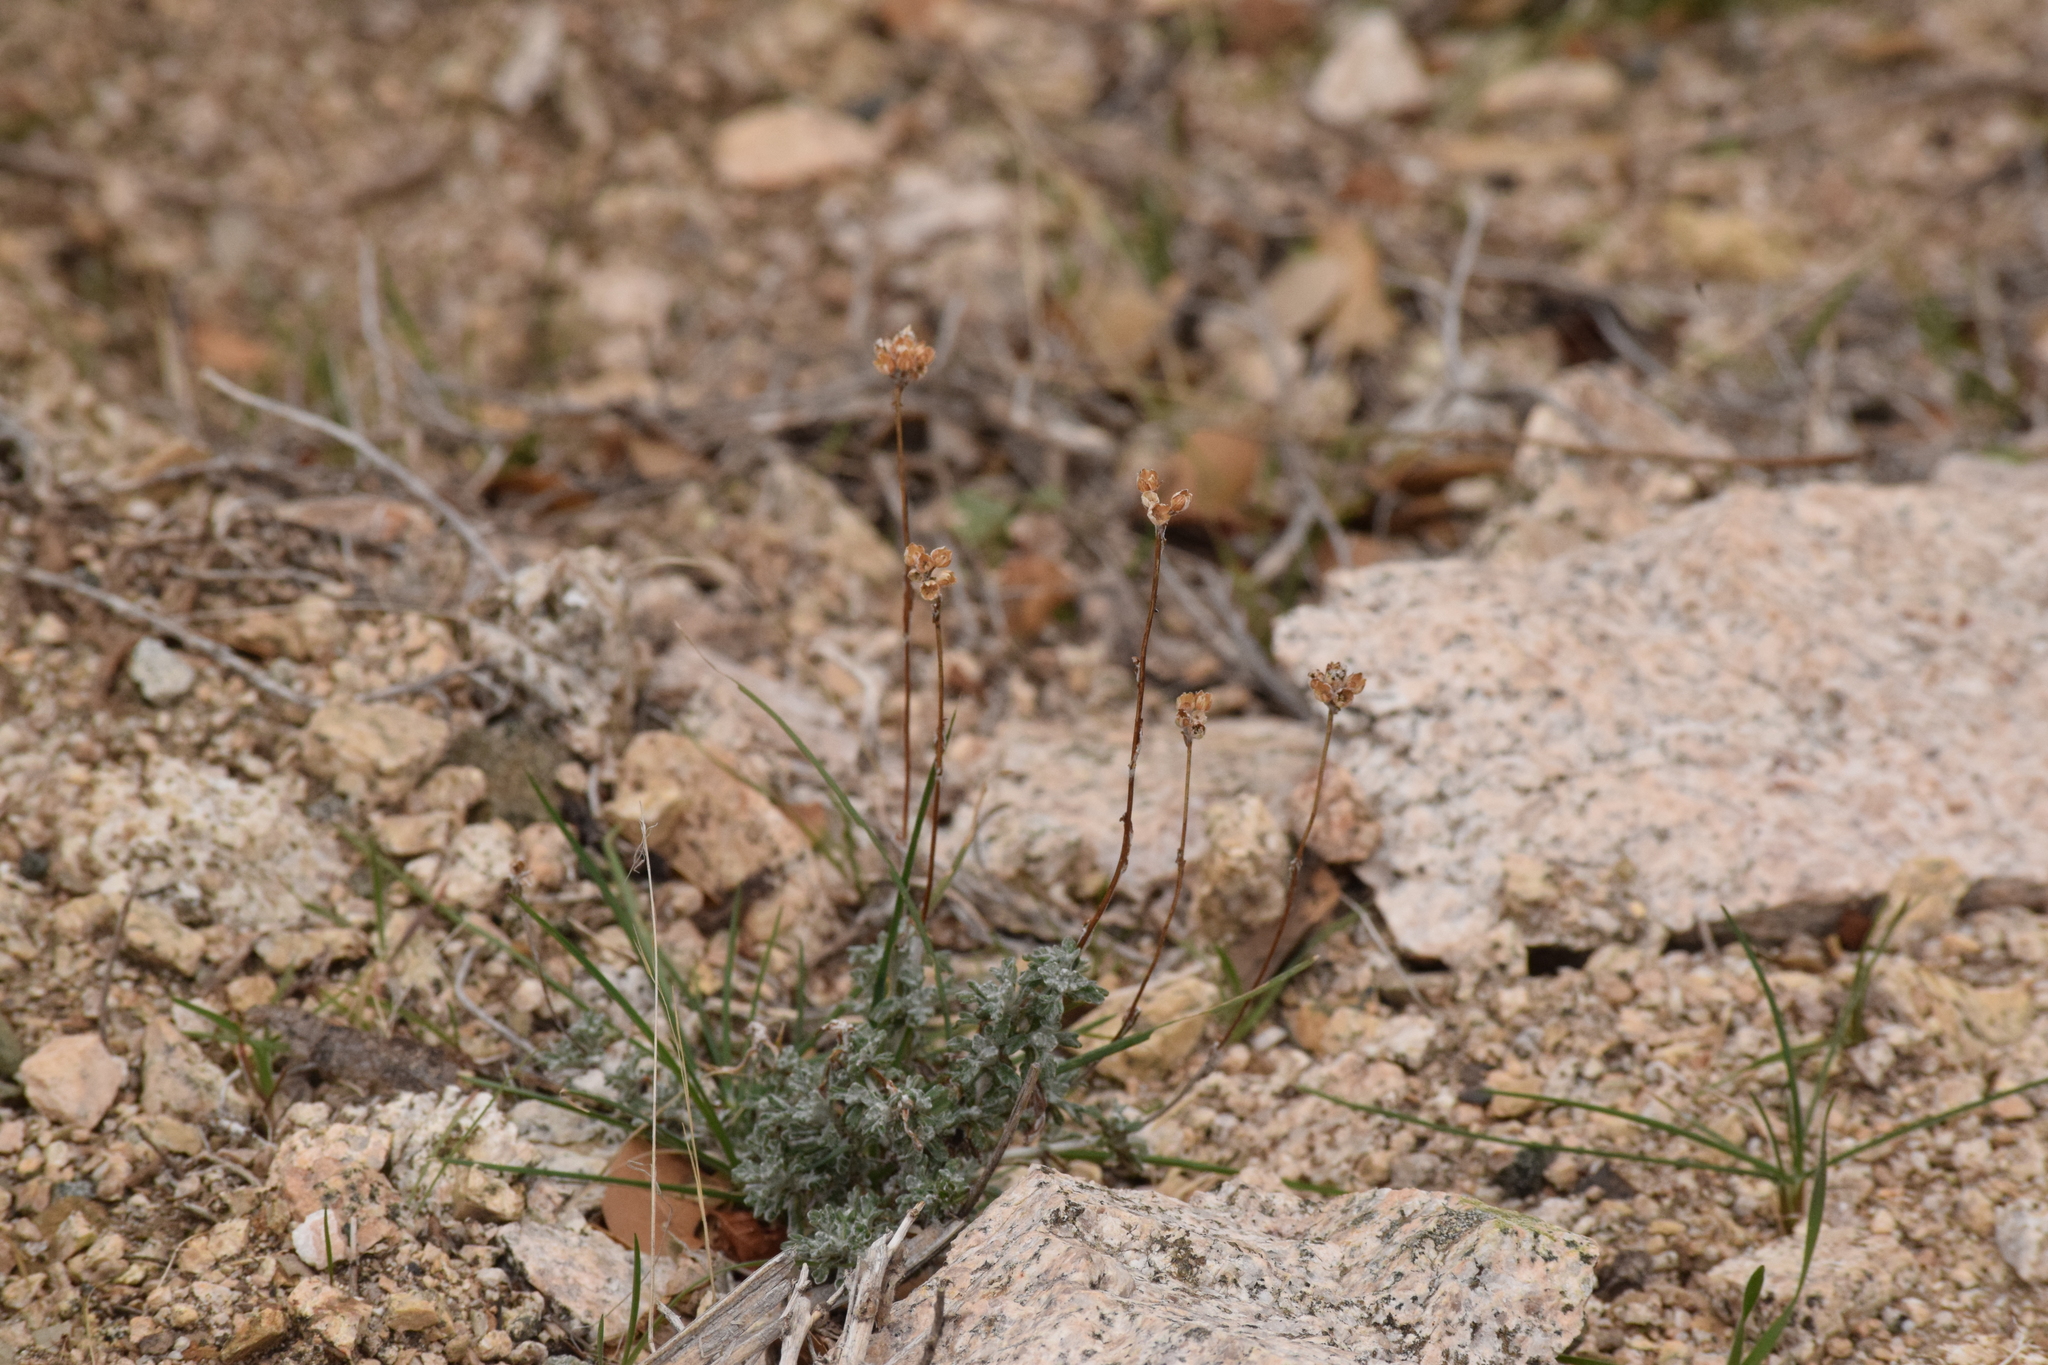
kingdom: Plantae
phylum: Tracheophyta
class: Magnoliopsida
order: Asterales
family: Asteraceae
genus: Eriophyllum
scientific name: Eriophyllum confertiflorum
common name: Golden-yarrow
